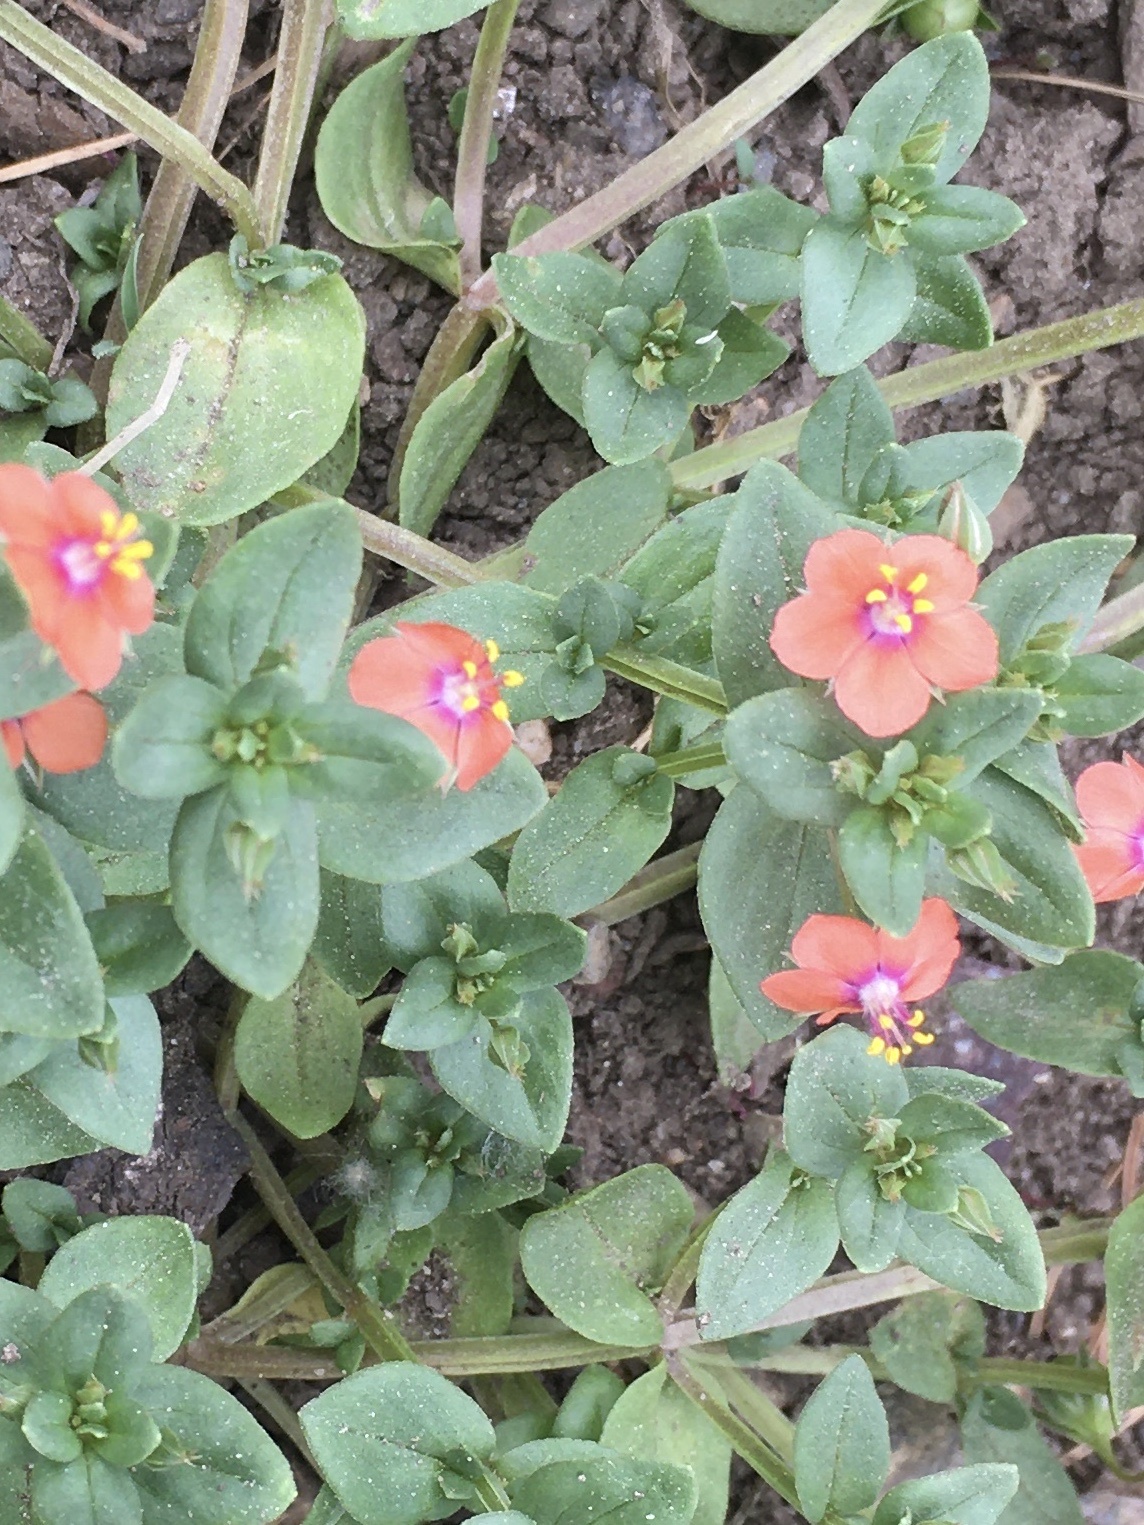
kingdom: Plantae
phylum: Tracheophyta
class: Magnoliopsida
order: Ericales
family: Primulaceae
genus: Lysimachia
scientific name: Lysimachia arvensis
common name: Scarlet pimpernel
